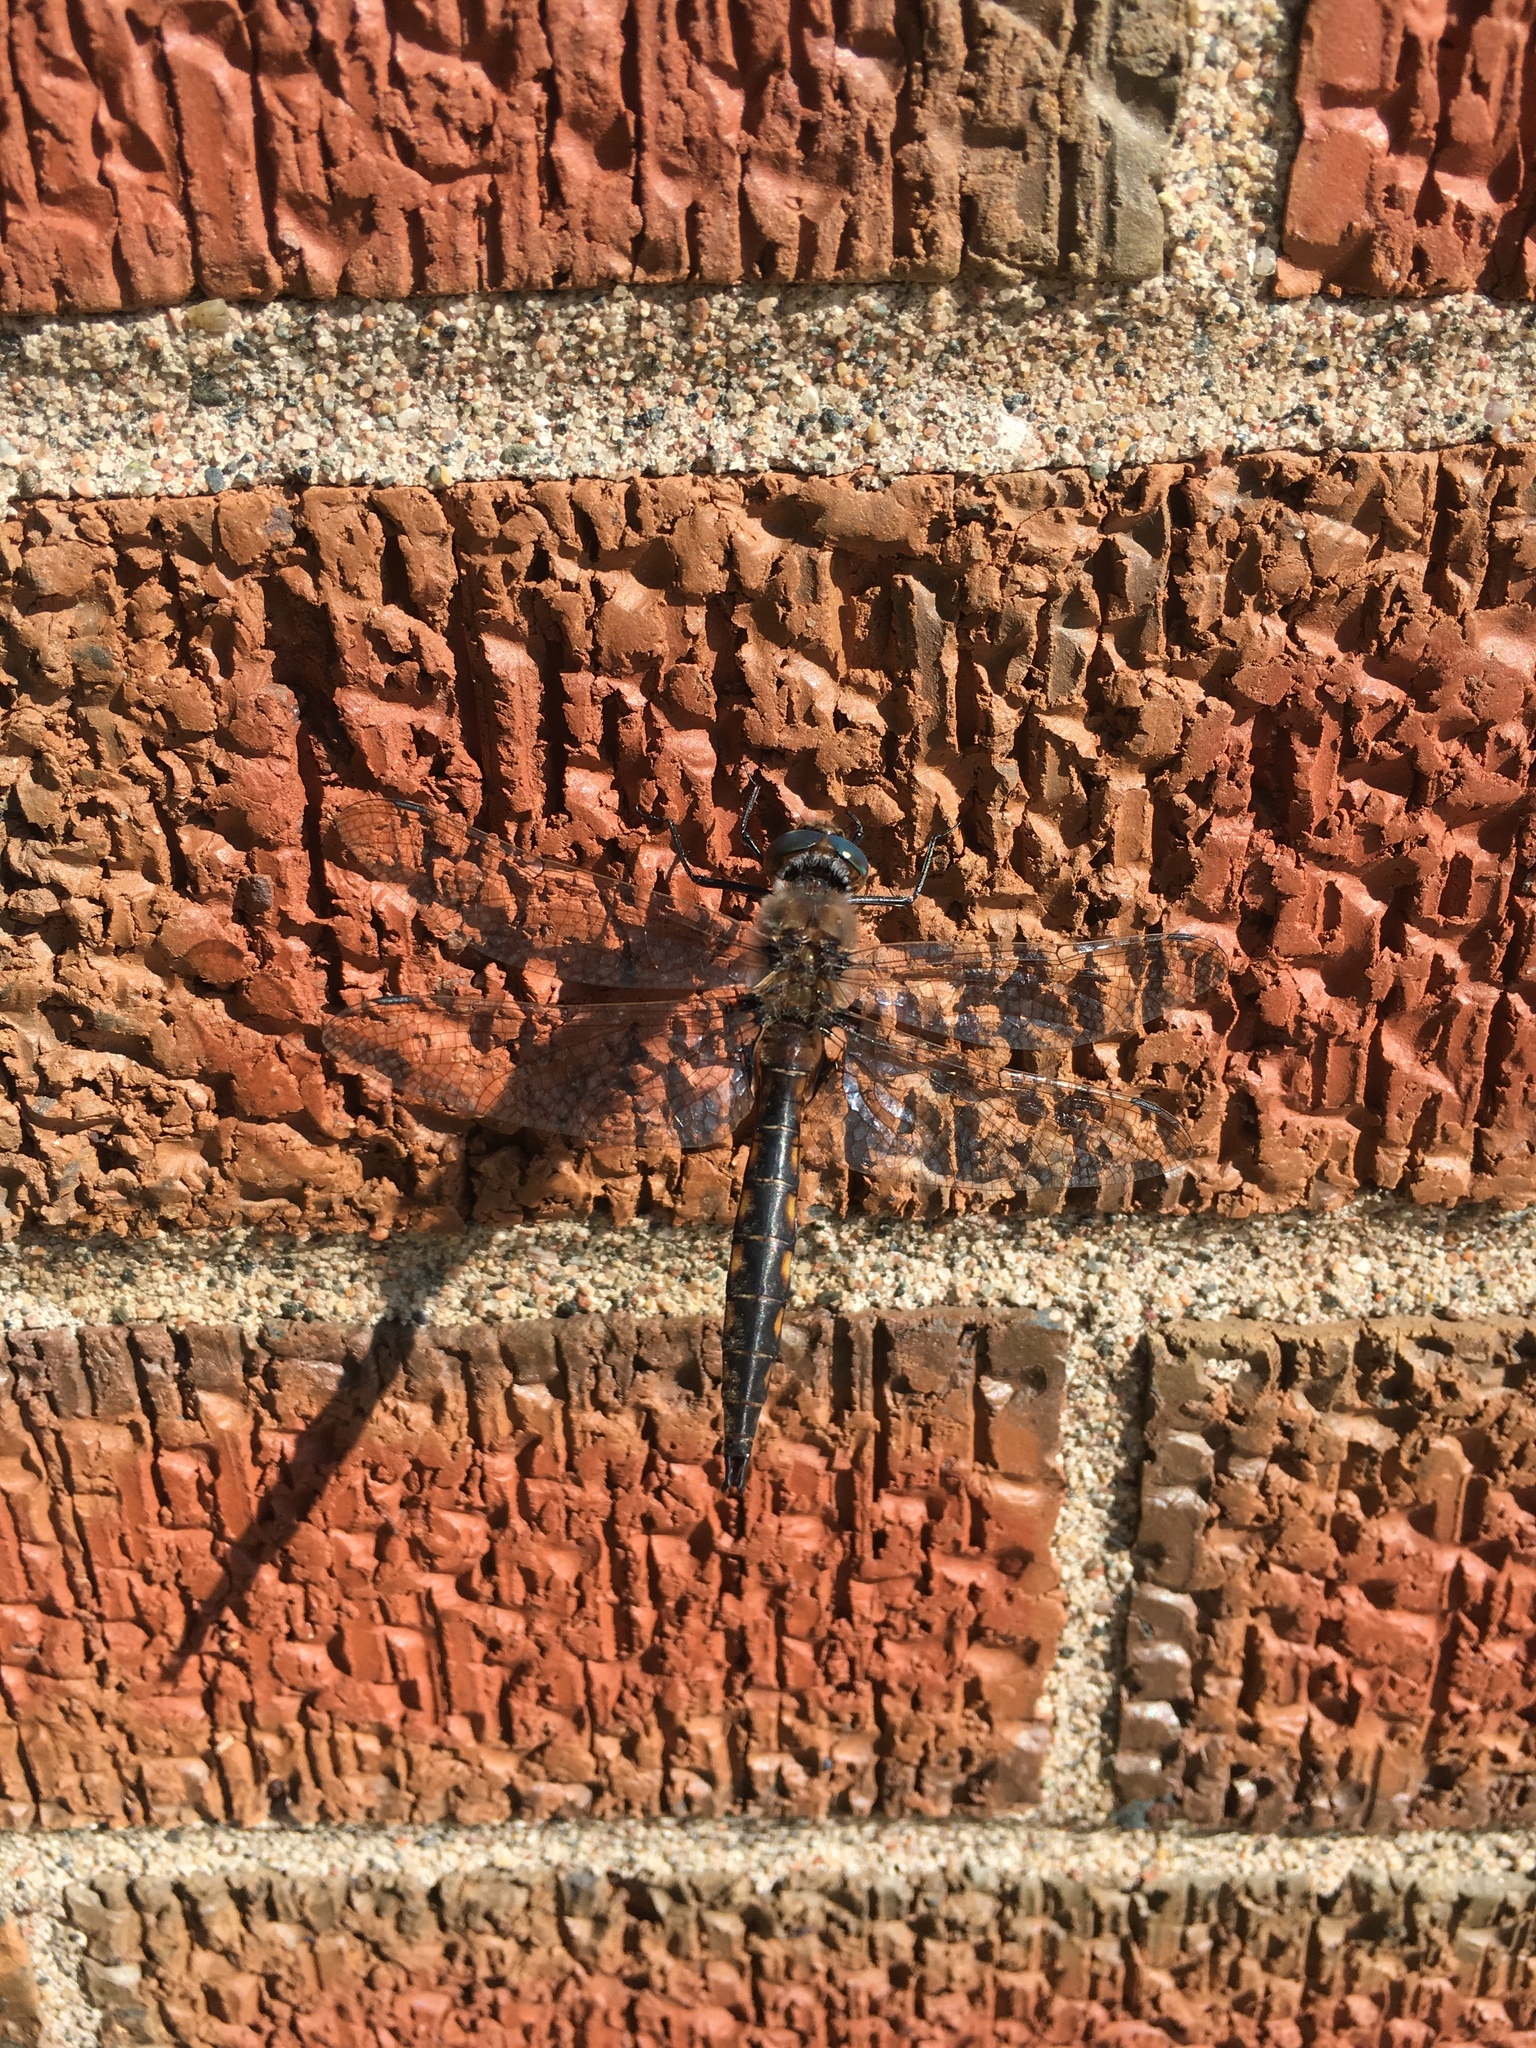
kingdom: Animalia
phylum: Arthropoda
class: Insecta
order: Odonata
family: Corduliidae
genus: Epitheca
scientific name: Epitheca canis
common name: Beaverpond baskettail
